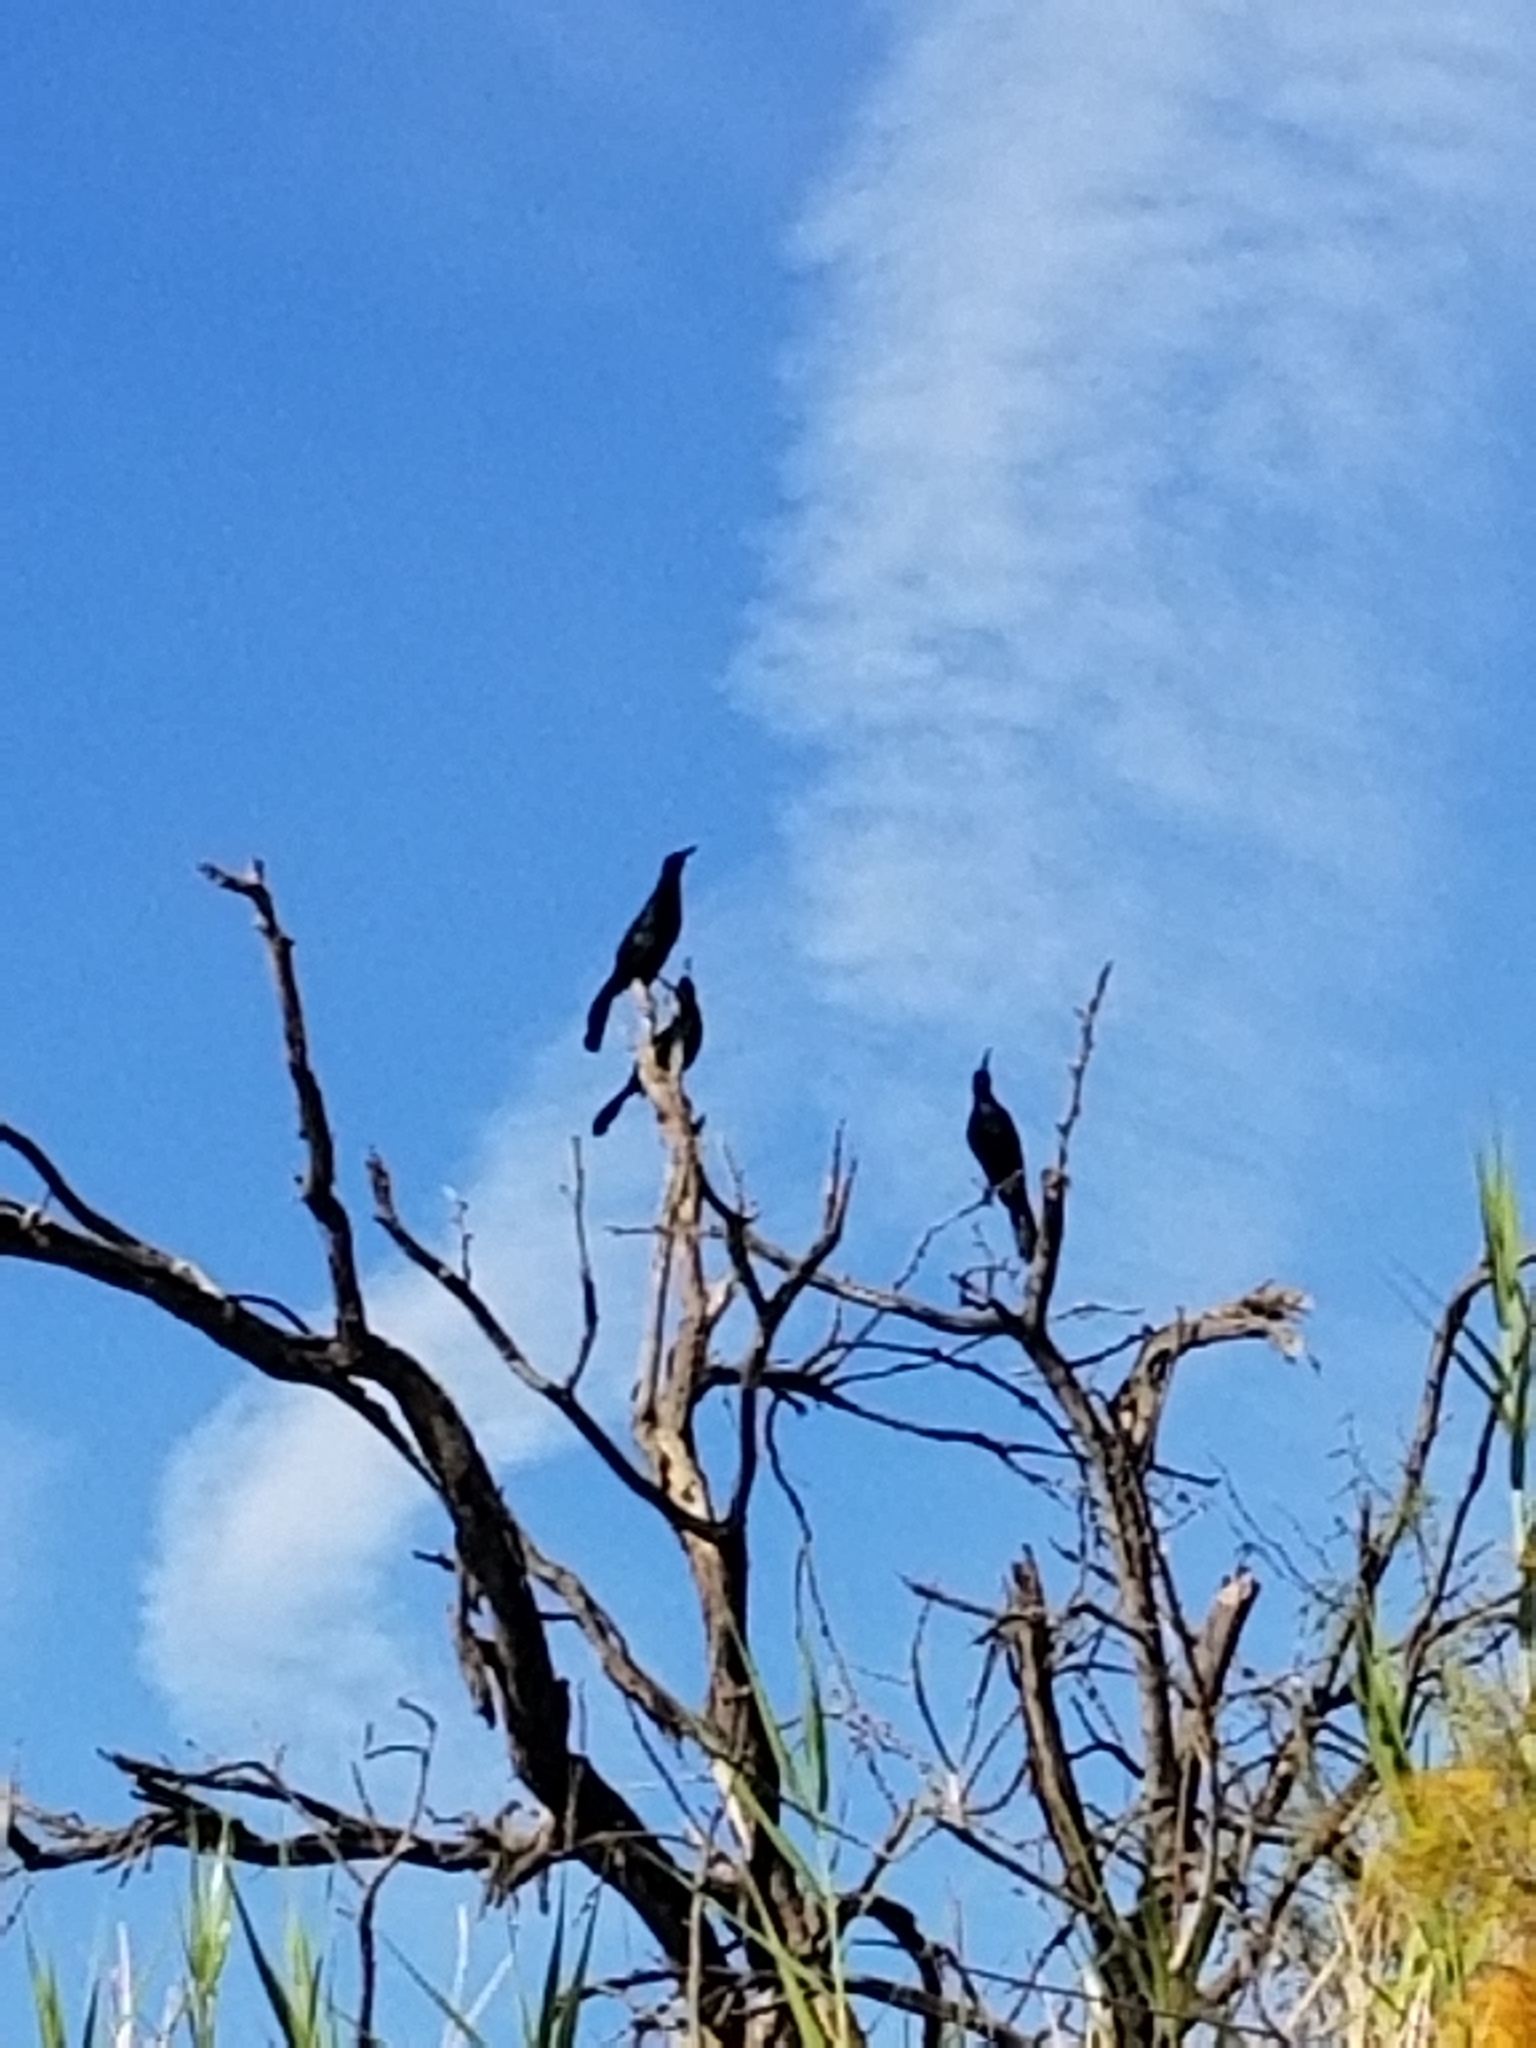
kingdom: Animalia
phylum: Chordata
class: Aves
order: Passeriformes
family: Icteridae
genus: Quiscalus
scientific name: Quiscalus mexicanus
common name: Great-tailed grackle
